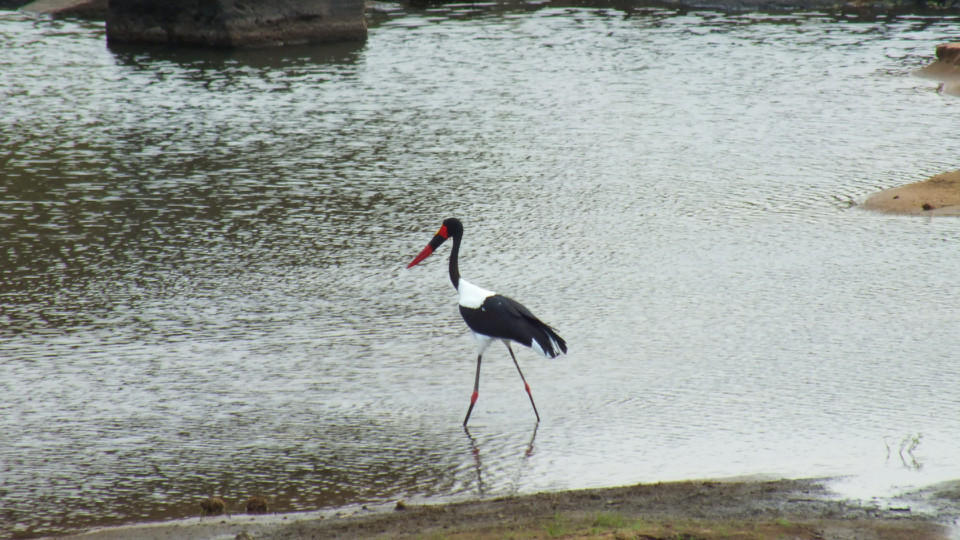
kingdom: Animalia
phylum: Chordata
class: Aves
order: Ciconiiformes
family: Ciconiidae
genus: Ephippiorhynchus
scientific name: Ephippiorhynchus senegalensis
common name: Saddle-billed stork
